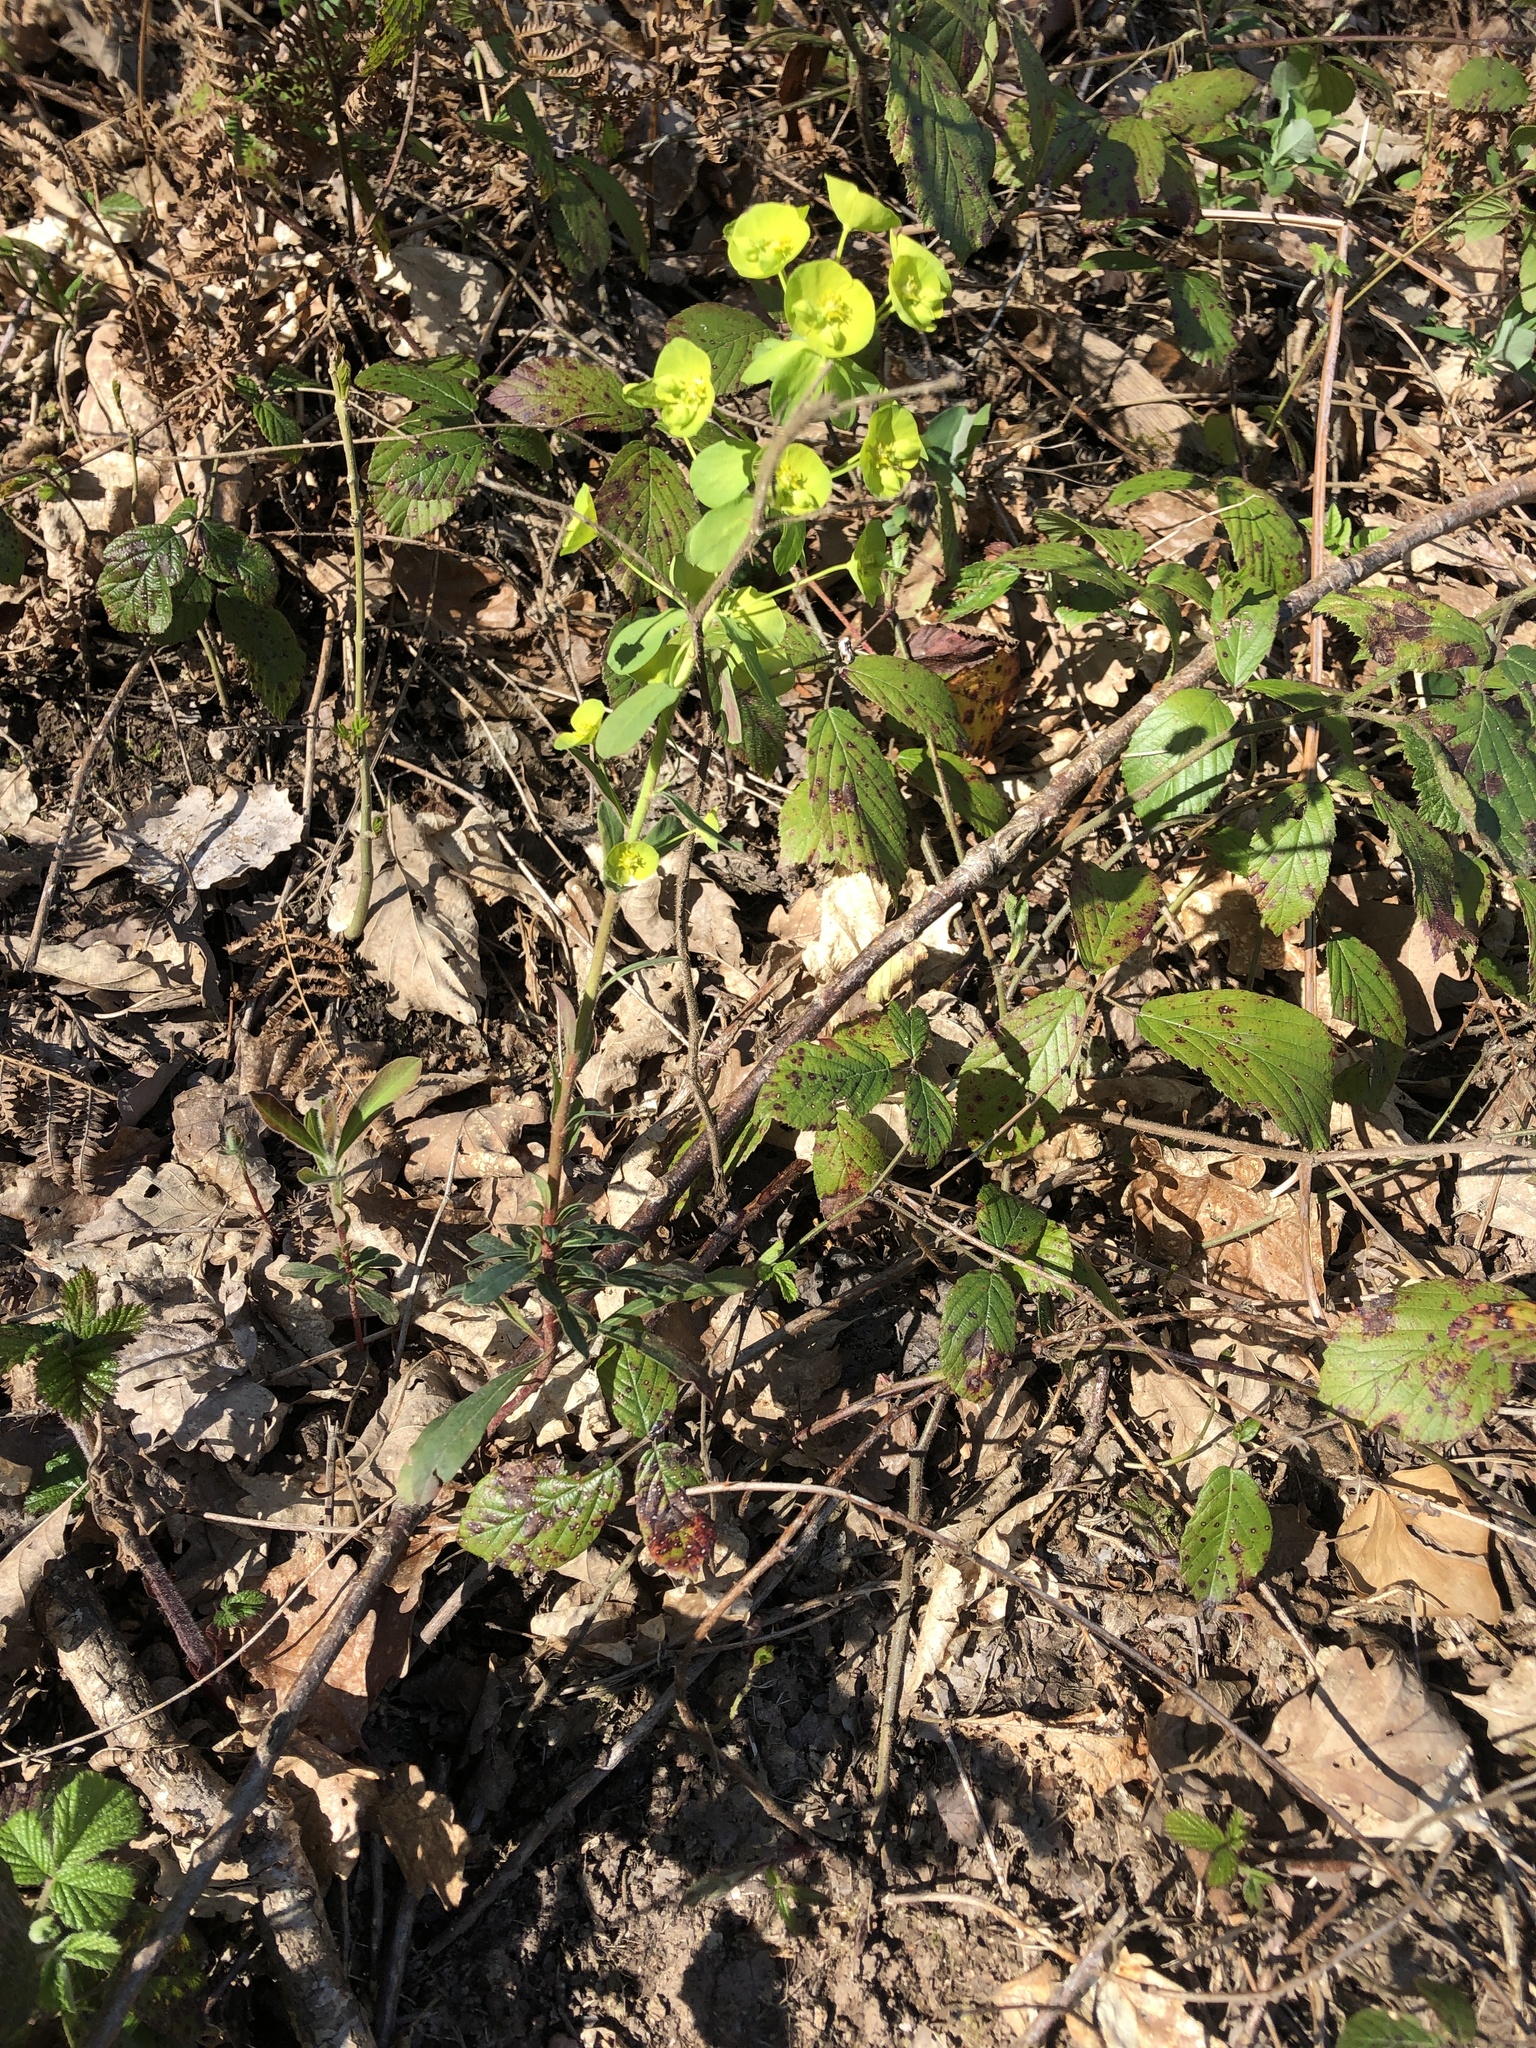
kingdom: Plantae
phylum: Tracheophyta
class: Magnoliopsida
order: Malpighiales
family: Euphorbiaceae
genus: Euphorbia
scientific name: Euphorbia amygdaloides
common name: Wood spurge
